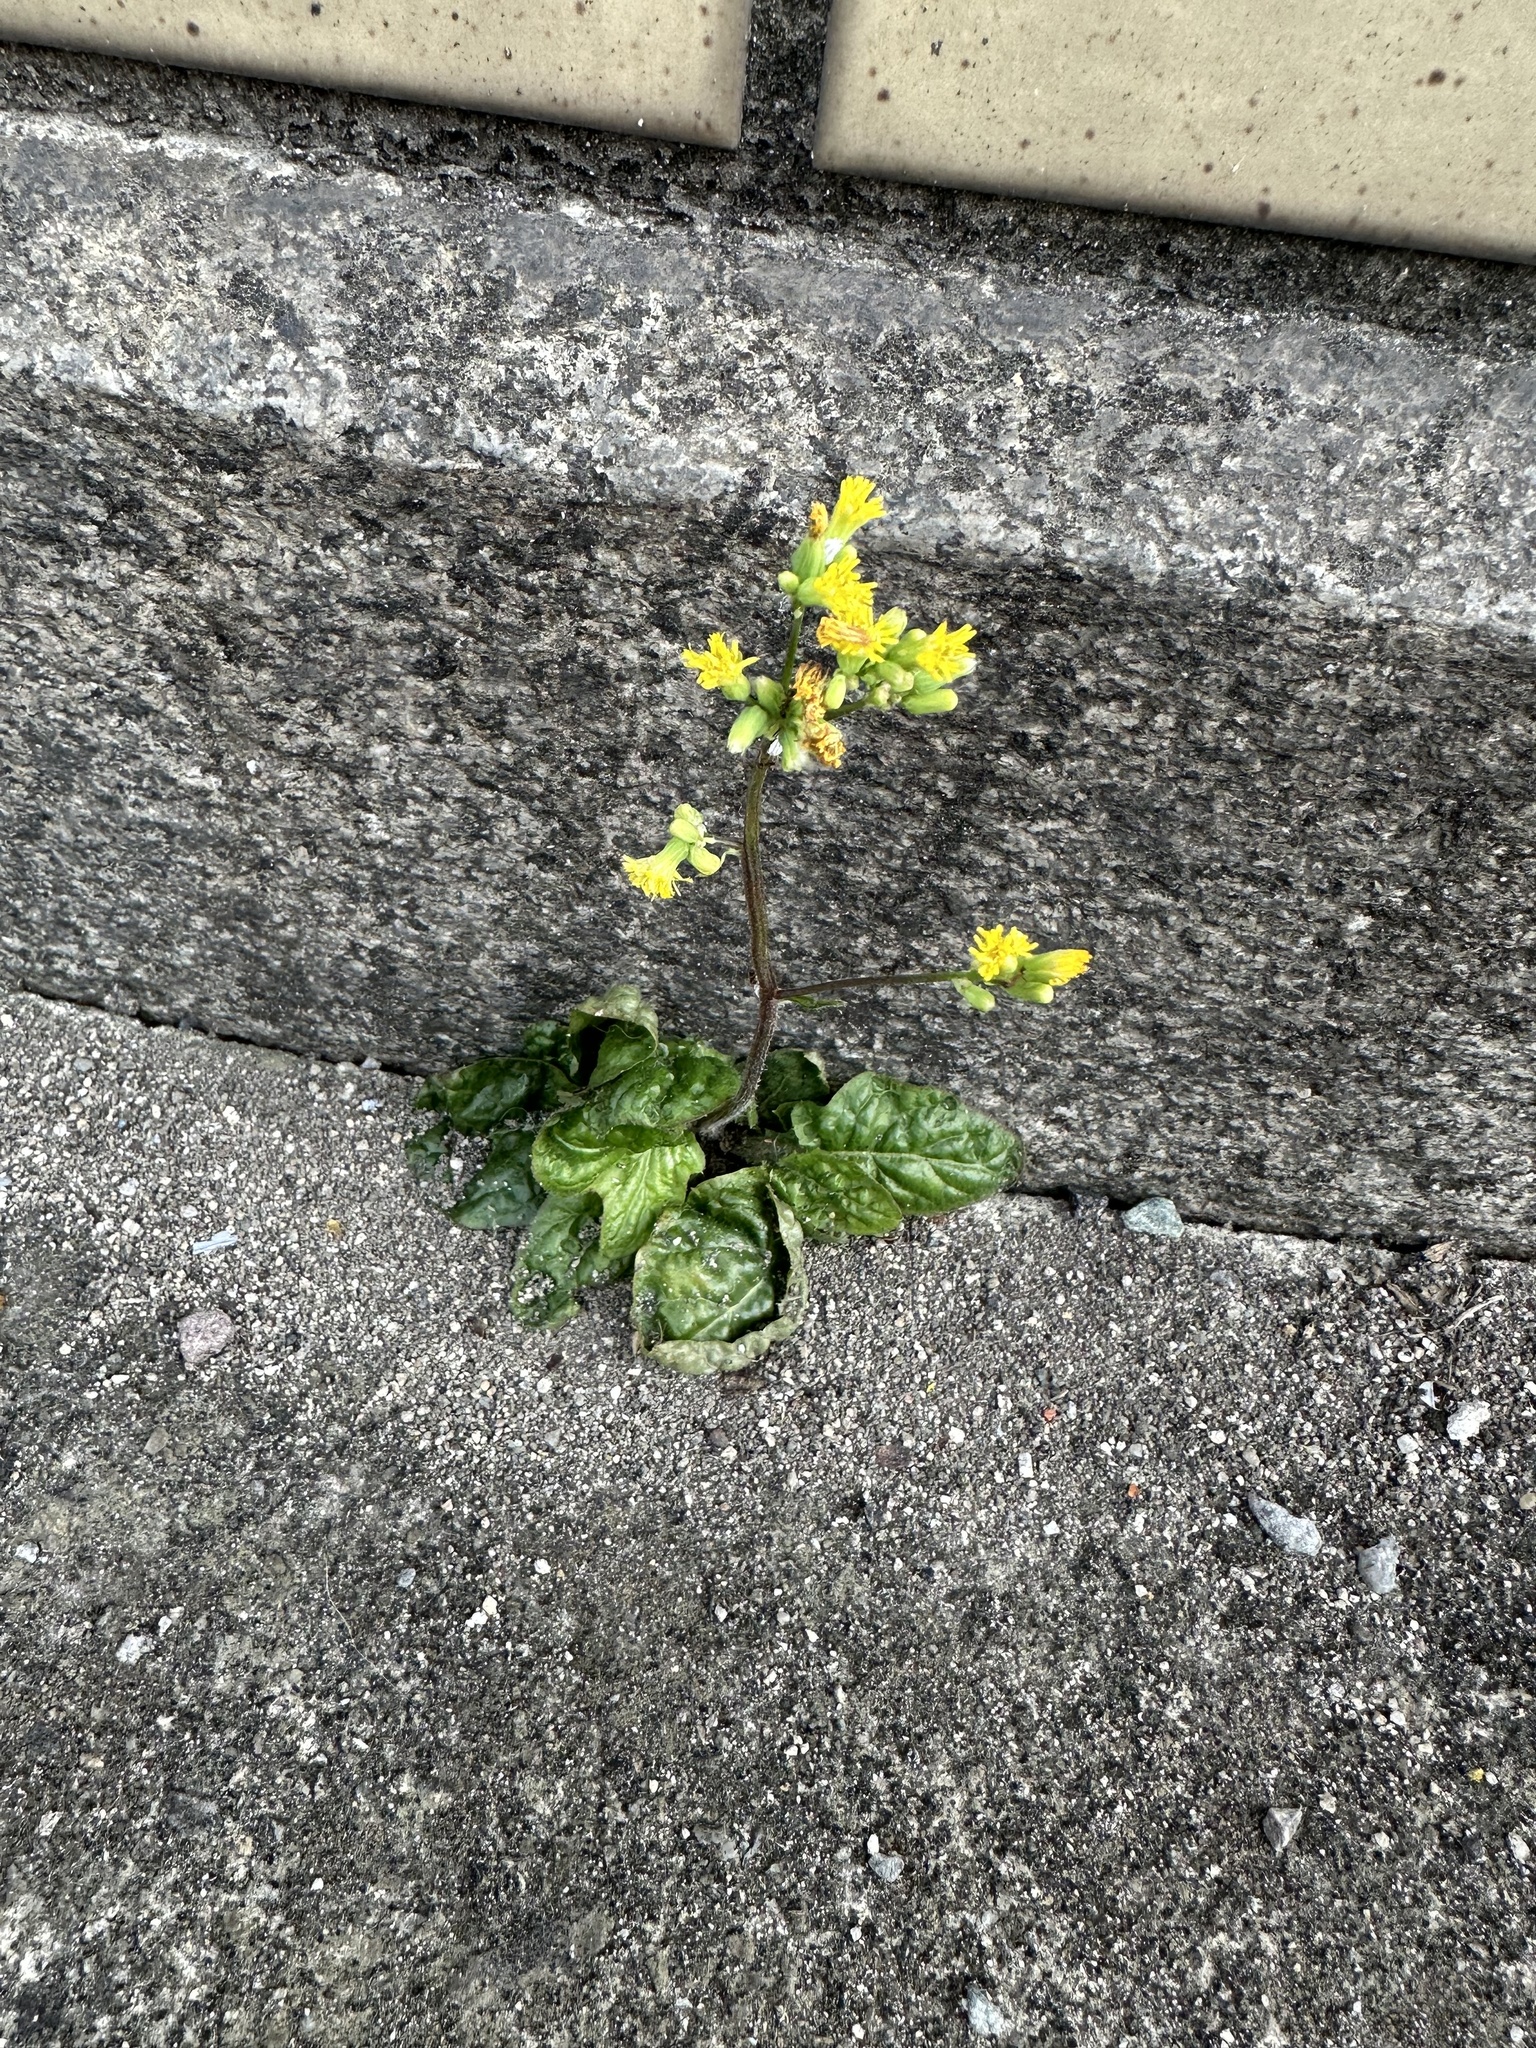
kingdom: Plantae
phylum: Tracheophyta
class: Magnoliopsida
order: Asterales
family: Asteraceae
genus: Youngia
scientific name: Youngia japonica
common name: Oriental false hawksbeard
